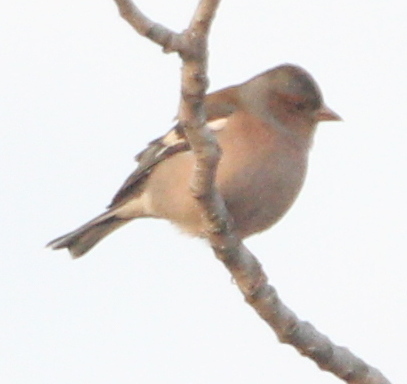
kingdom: Animalia
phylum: Chordata
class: Aves
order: Passeriformes
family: Fringillidae
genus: Fringilla
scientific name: Fringilla coelebs
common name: Common chaffinch
